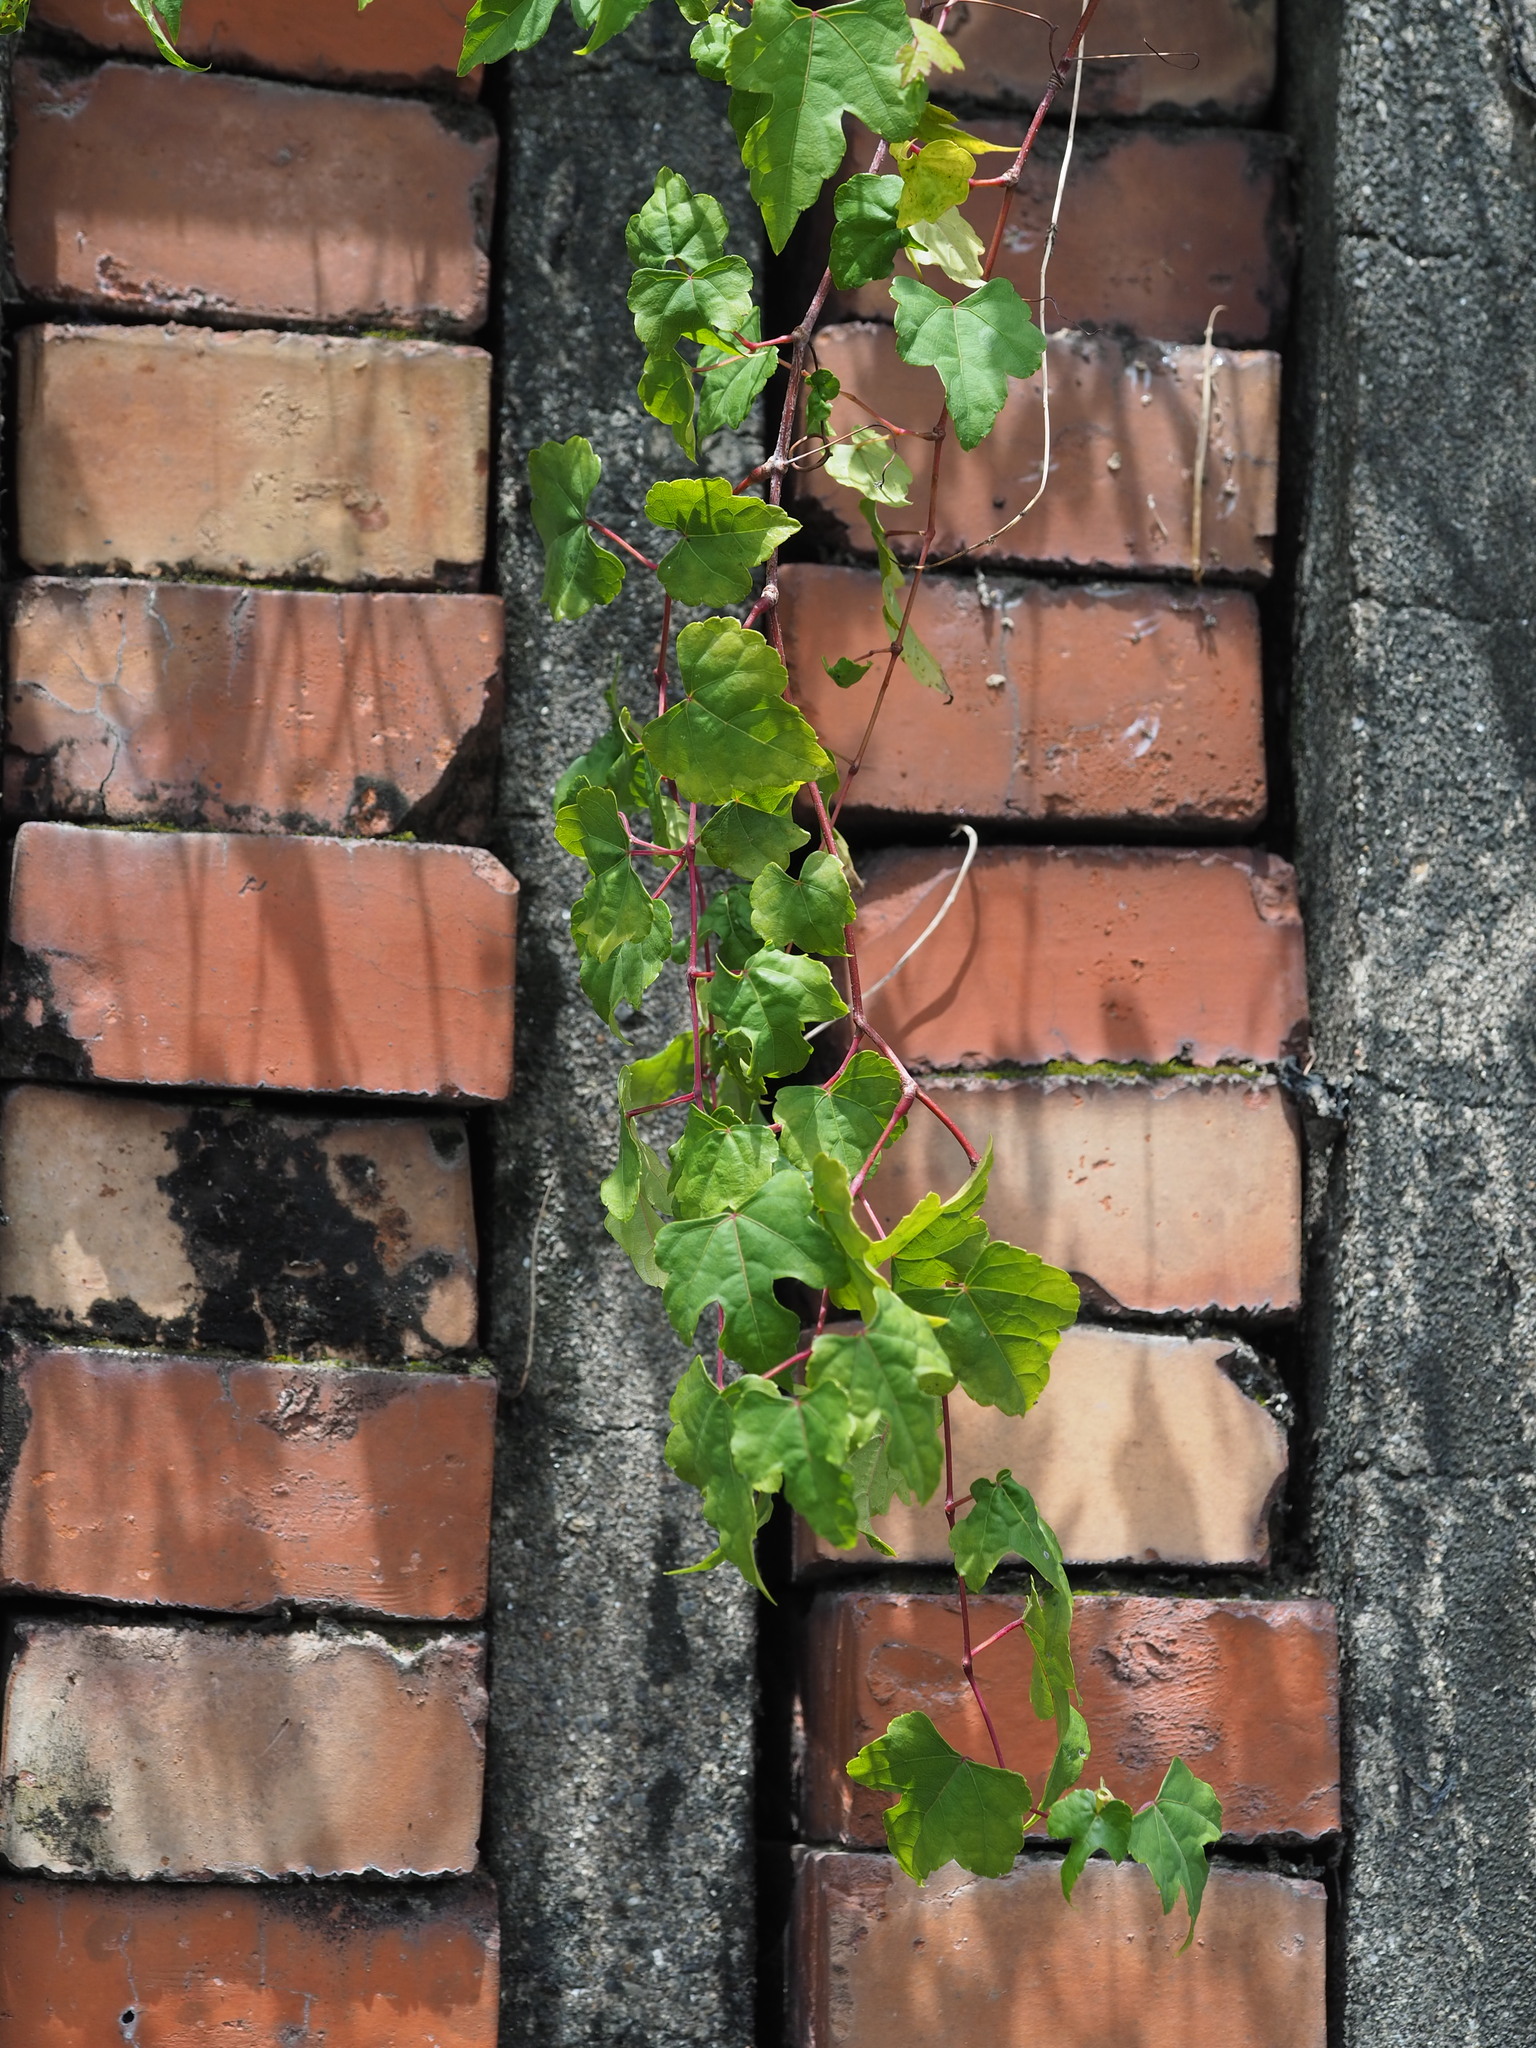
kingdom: Plantae
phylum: Tracheophyta
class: Magnoliopsida
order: Vitales
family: Vitaceae
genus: Ampelopsis
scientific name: Ampelopsis glandulosa
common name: Amur peppervine
